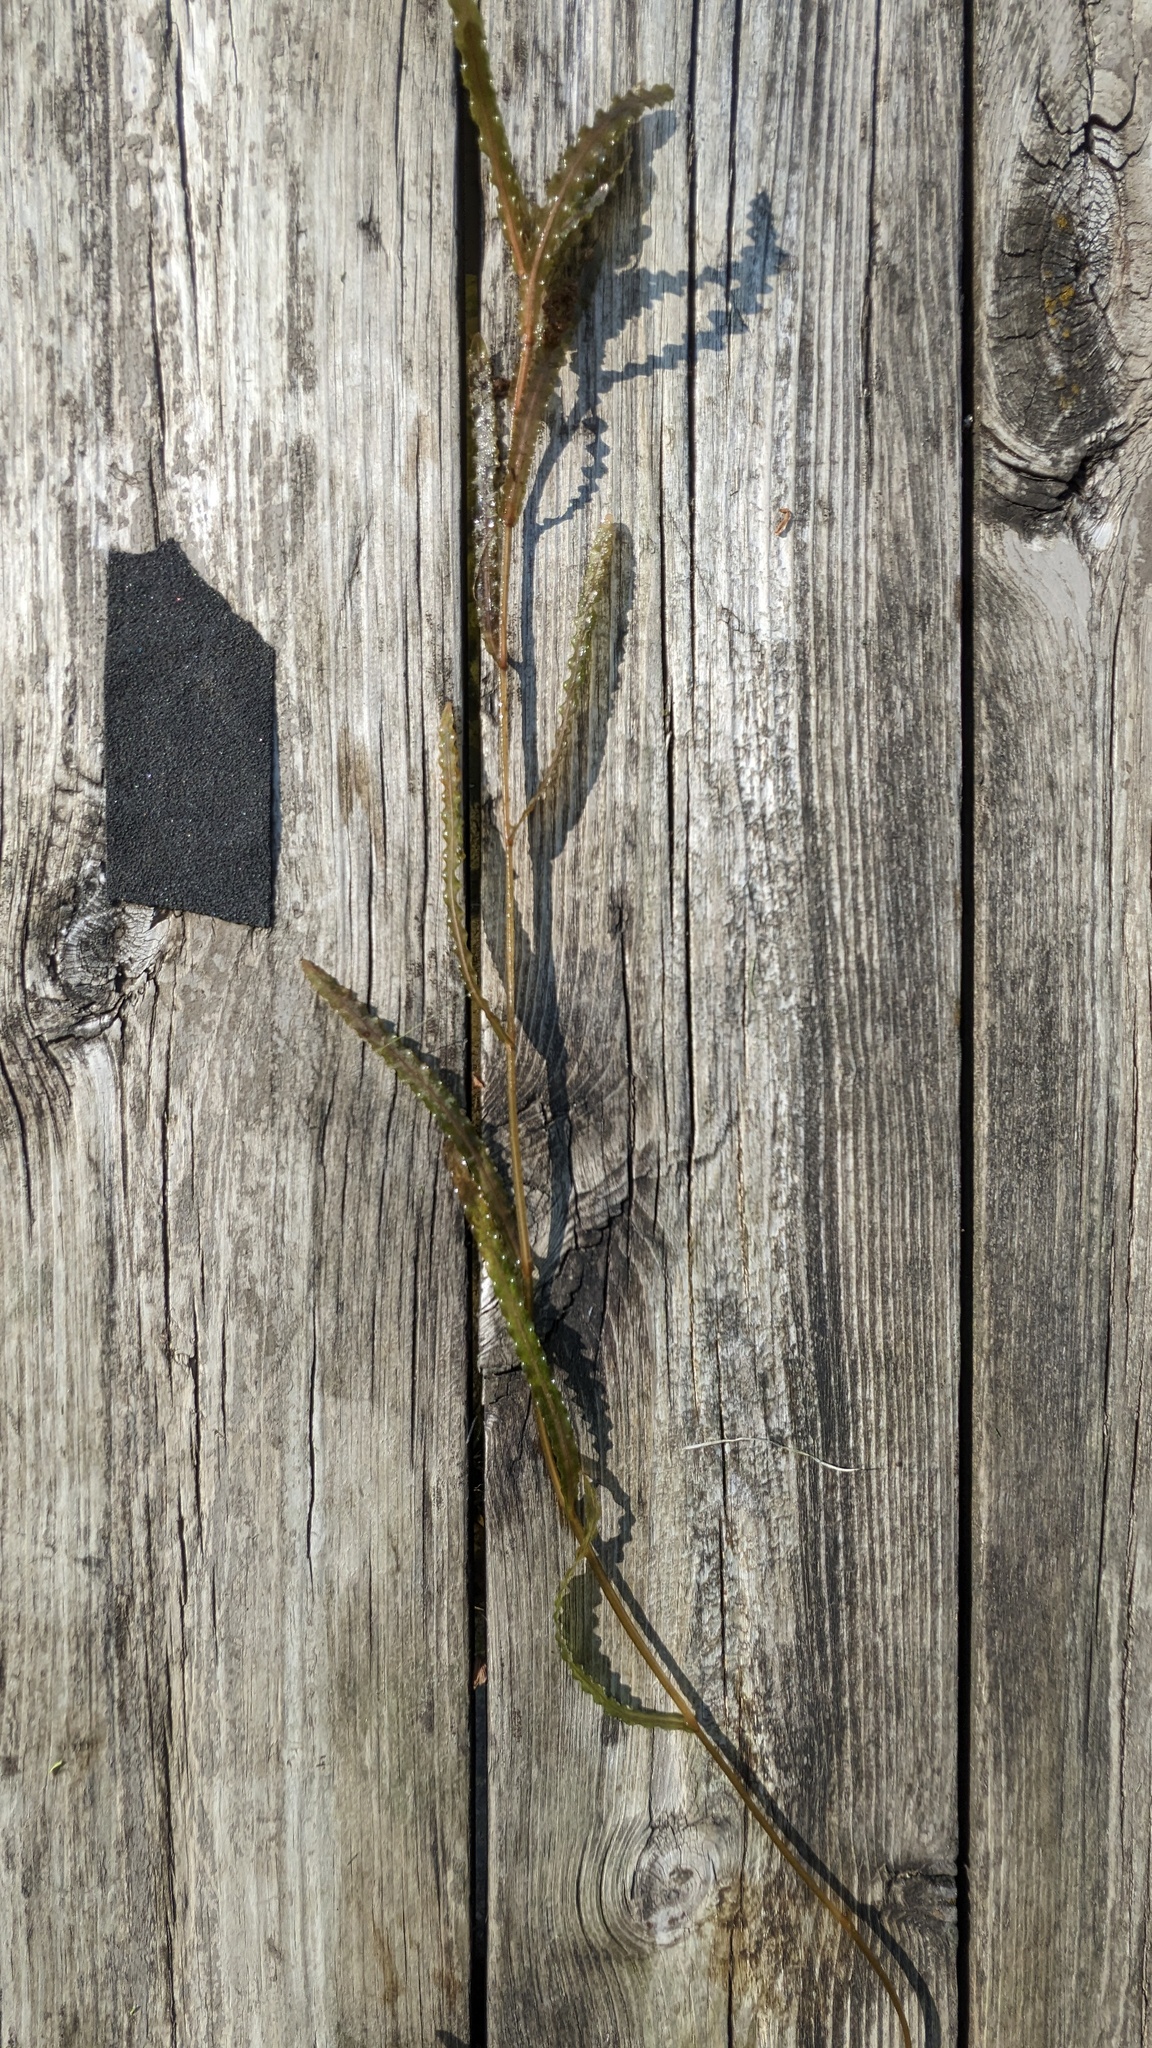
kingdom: Plantae
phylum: Tracheophyta
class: Liliopsida
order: Alismatales
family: Potamogetonaceae
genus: Potamogeton
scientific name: Potamogeton crispus
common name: Curled pondweed
